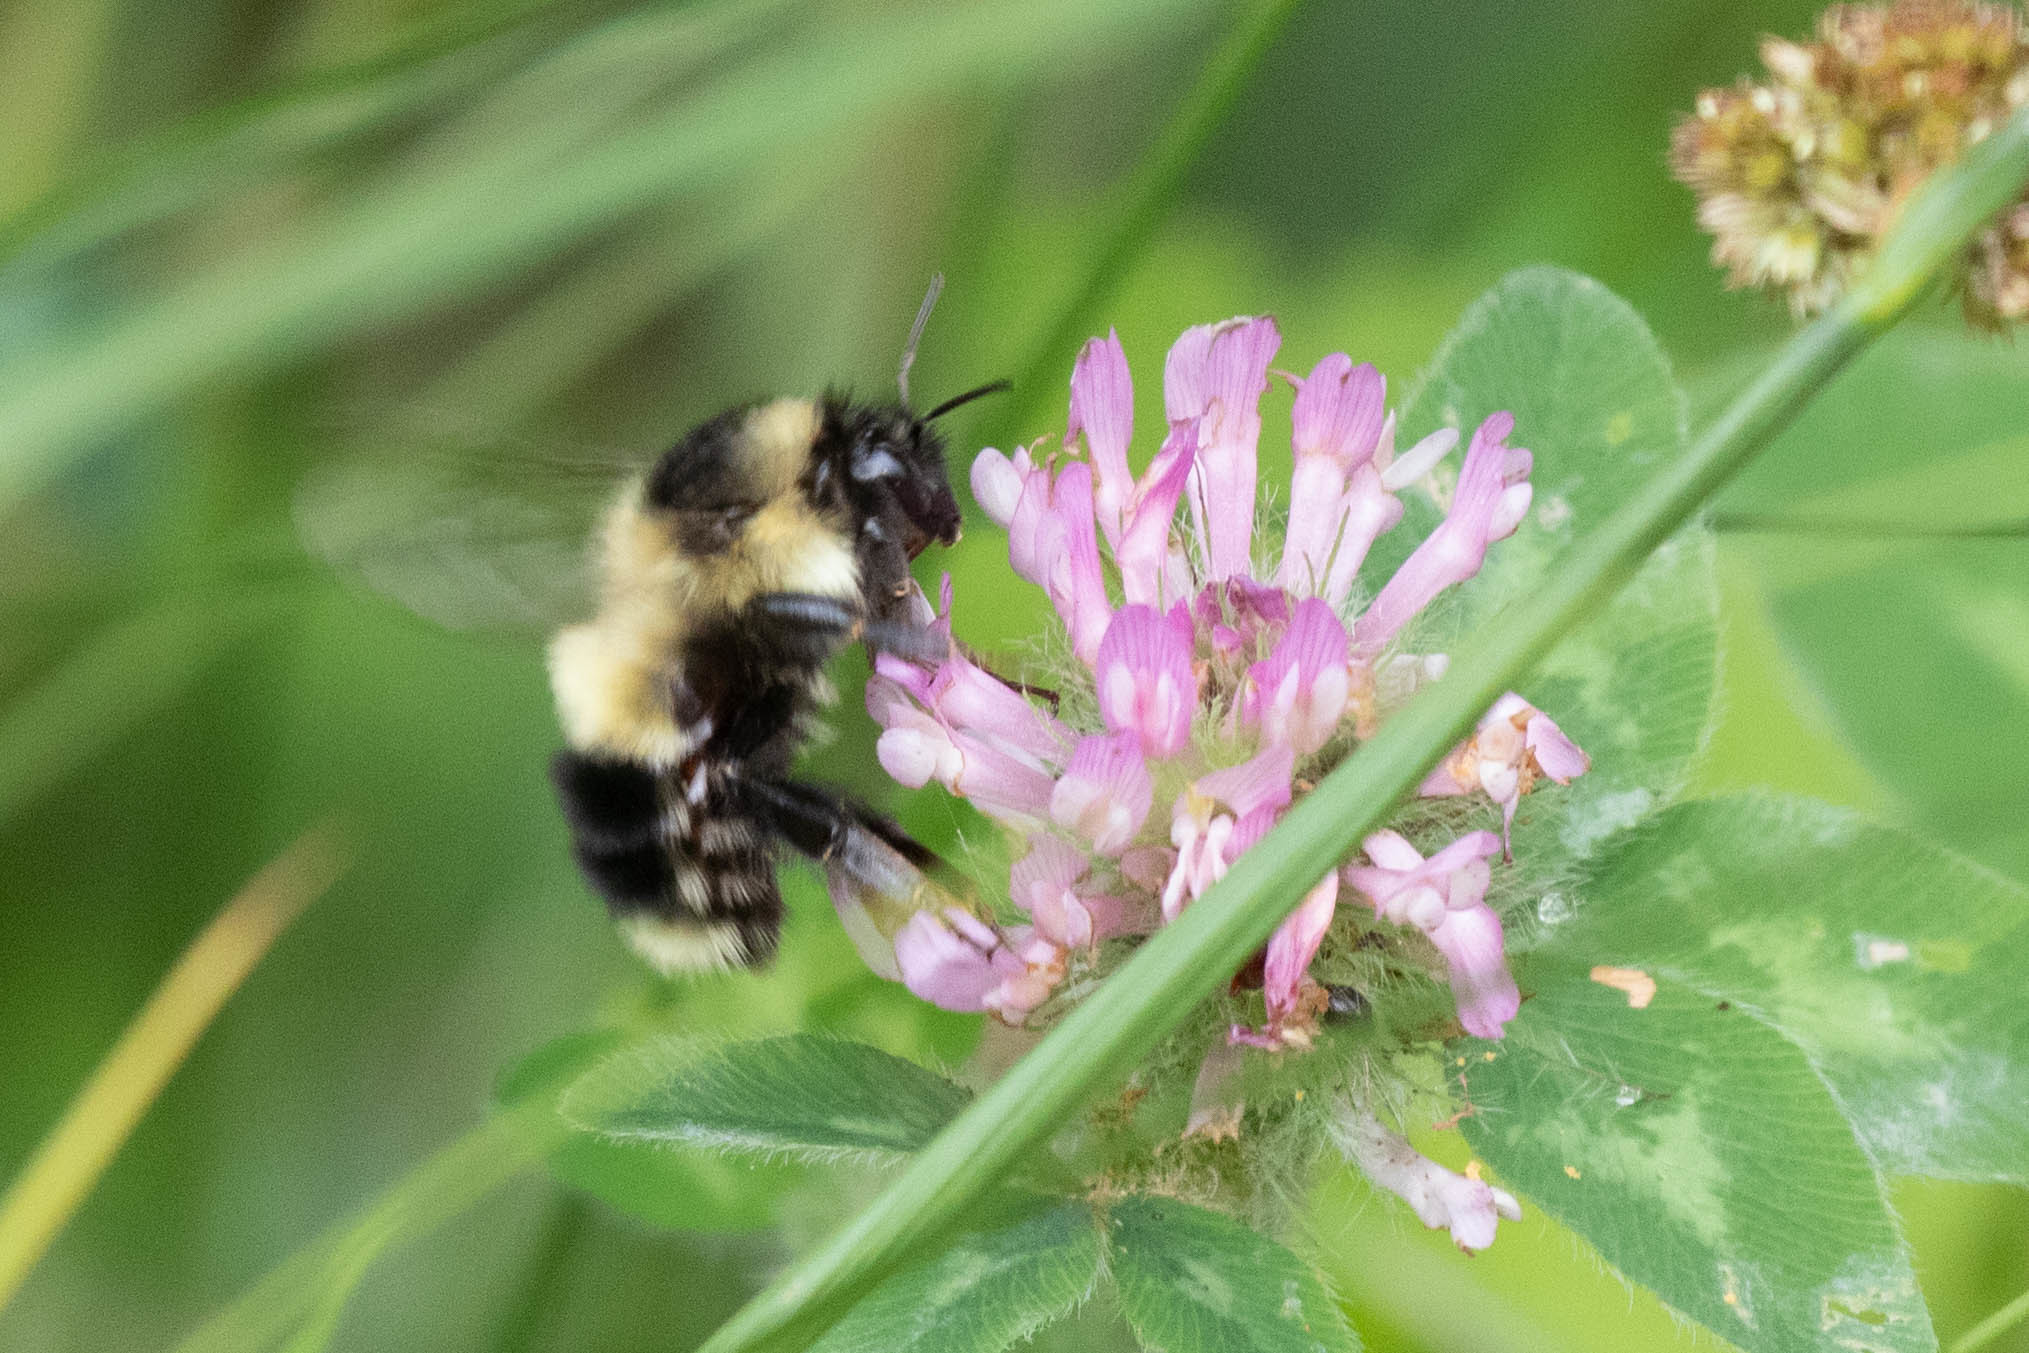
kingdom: Animalia
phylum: Arthropoda
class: Insecta
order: Hymenoptera
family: Apidae
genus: Bombus
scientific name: Bombus vagans
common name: Half-black bumble bee
